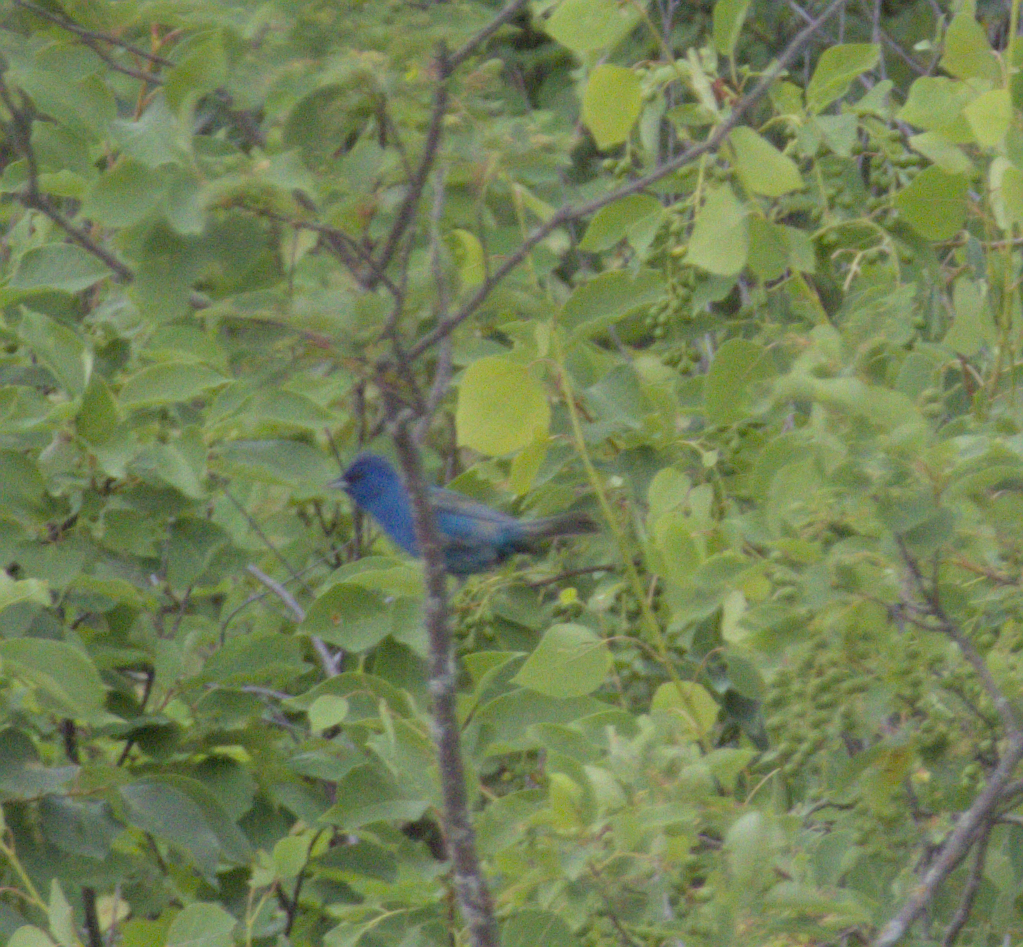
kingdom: Animalia
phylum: Chordata
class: Aves
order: Passeriformes
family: Cardinalidae
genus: Passerina
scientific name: Passerina cyanea
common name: Indigo bunting
